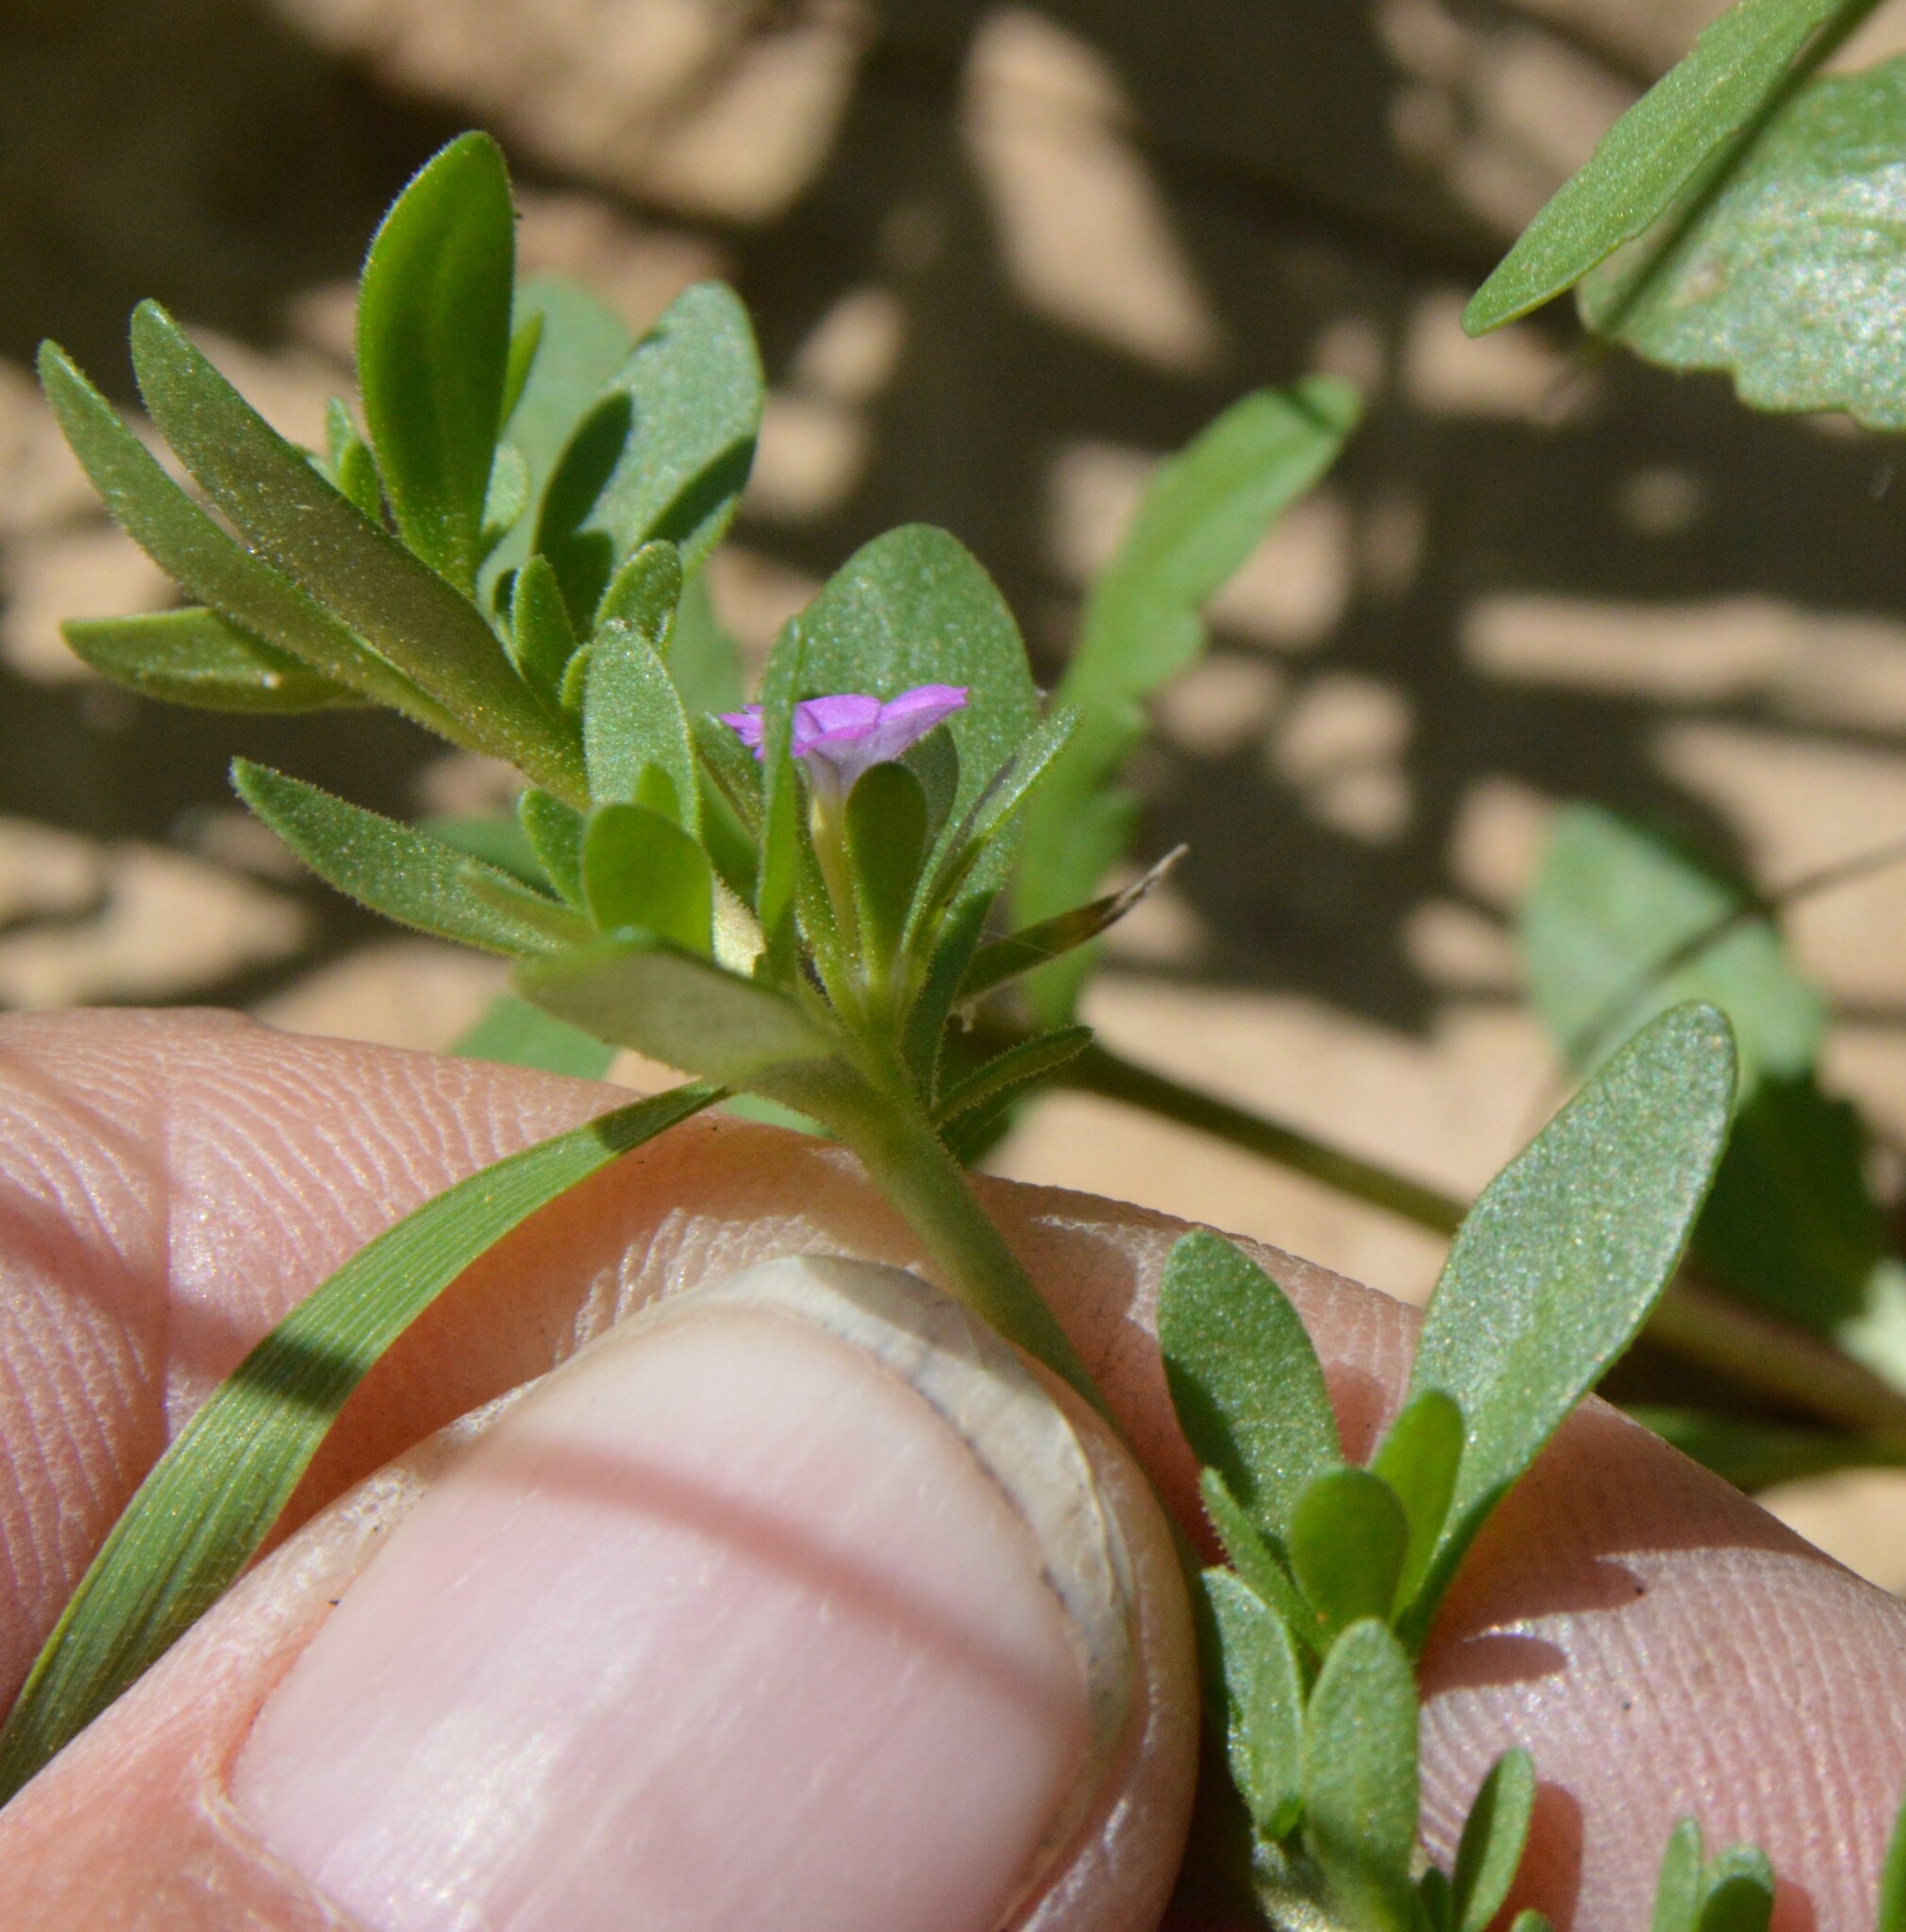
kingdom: Plantae
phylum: Tracheophyta
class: Magnoliopsida
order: Solanales
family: Solanaceae
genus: Calibrachoa
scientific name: Calibrachoa parviflora
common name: Seaside petunia
